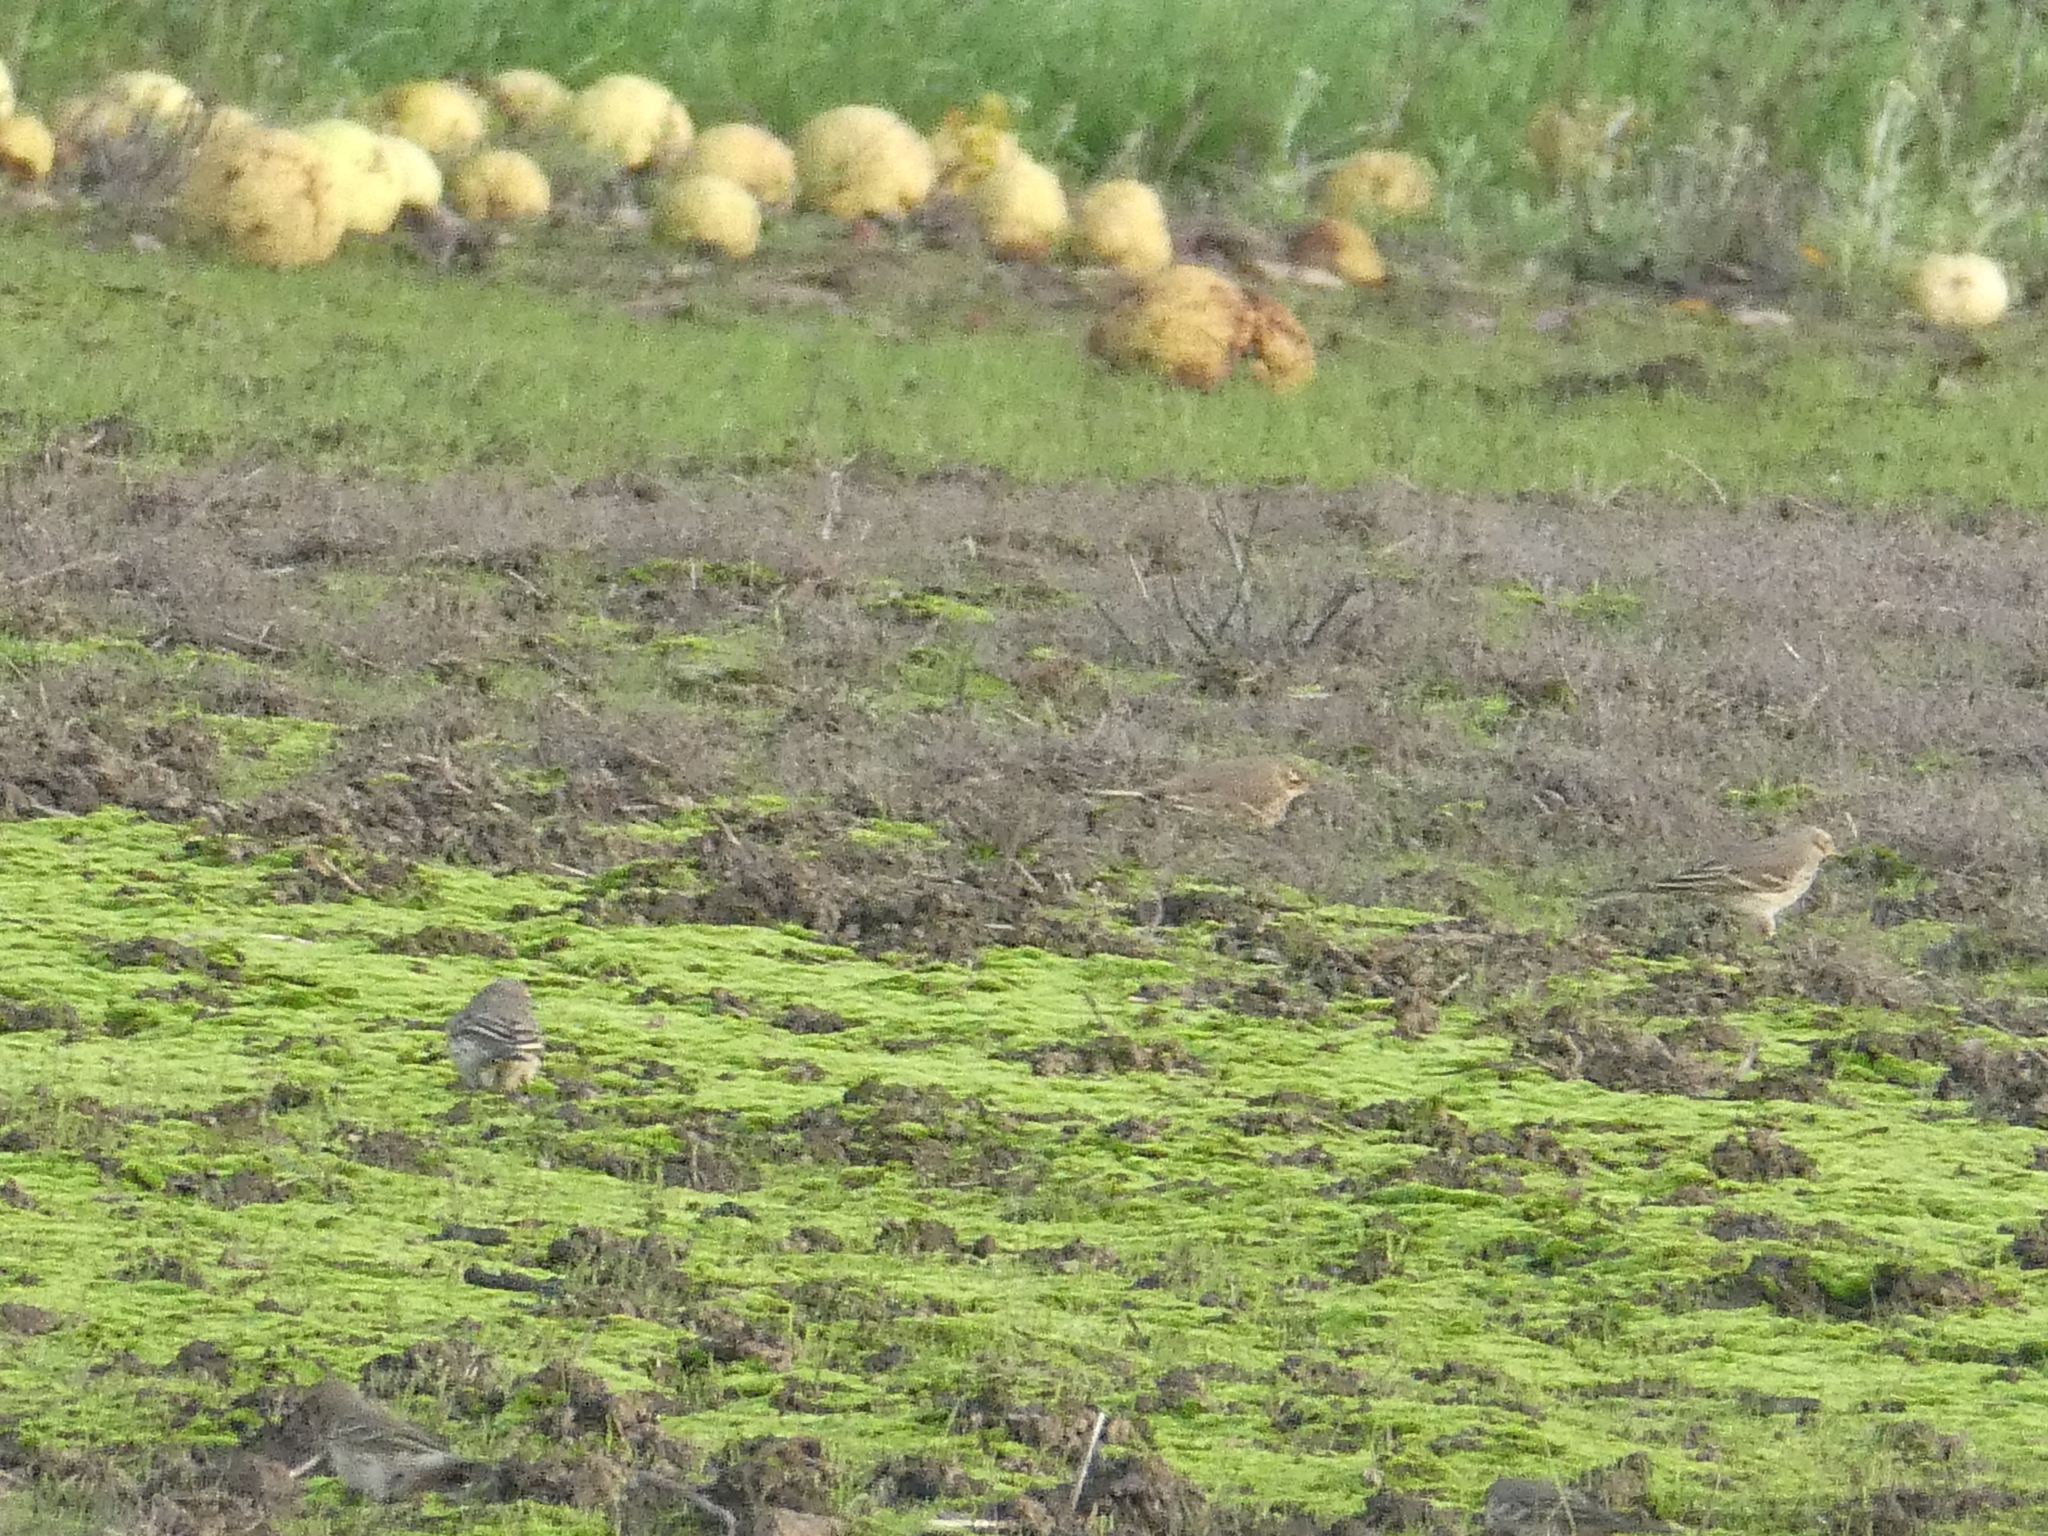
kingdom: Animalia
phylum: Chordata
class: Aves
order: Passeriformes
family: Motacillidae
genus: Anthus
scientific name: Anthus rubescens
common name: Buff-bellied pipit
